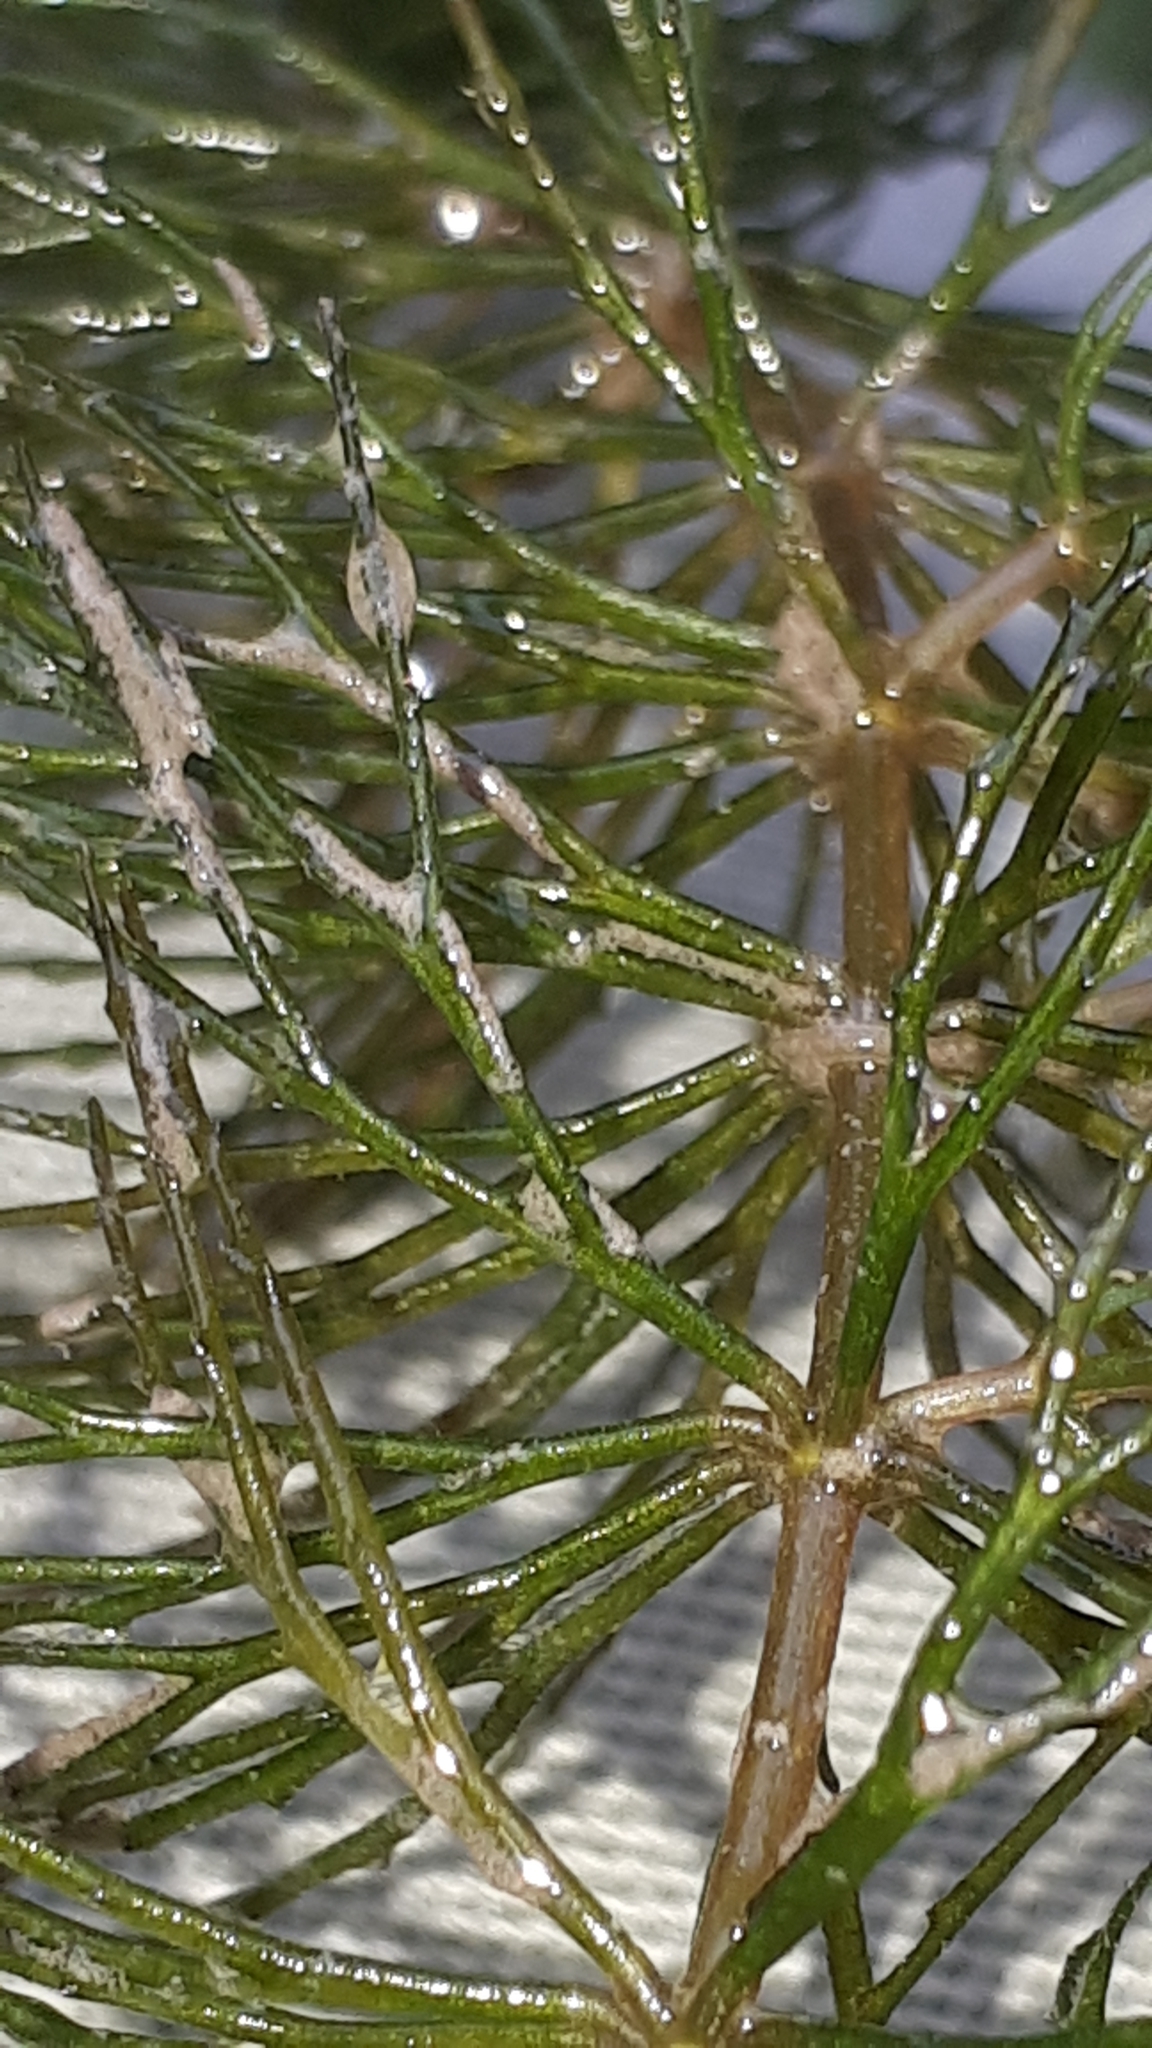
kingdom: Plantae
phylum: Tracheophyta
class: Magnoliopsida
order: Ceratophyllales
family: Ceratophyllaceae
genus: Ceratophyllum
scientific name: Ceratophyllum demersum
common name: Rigid hornwort
